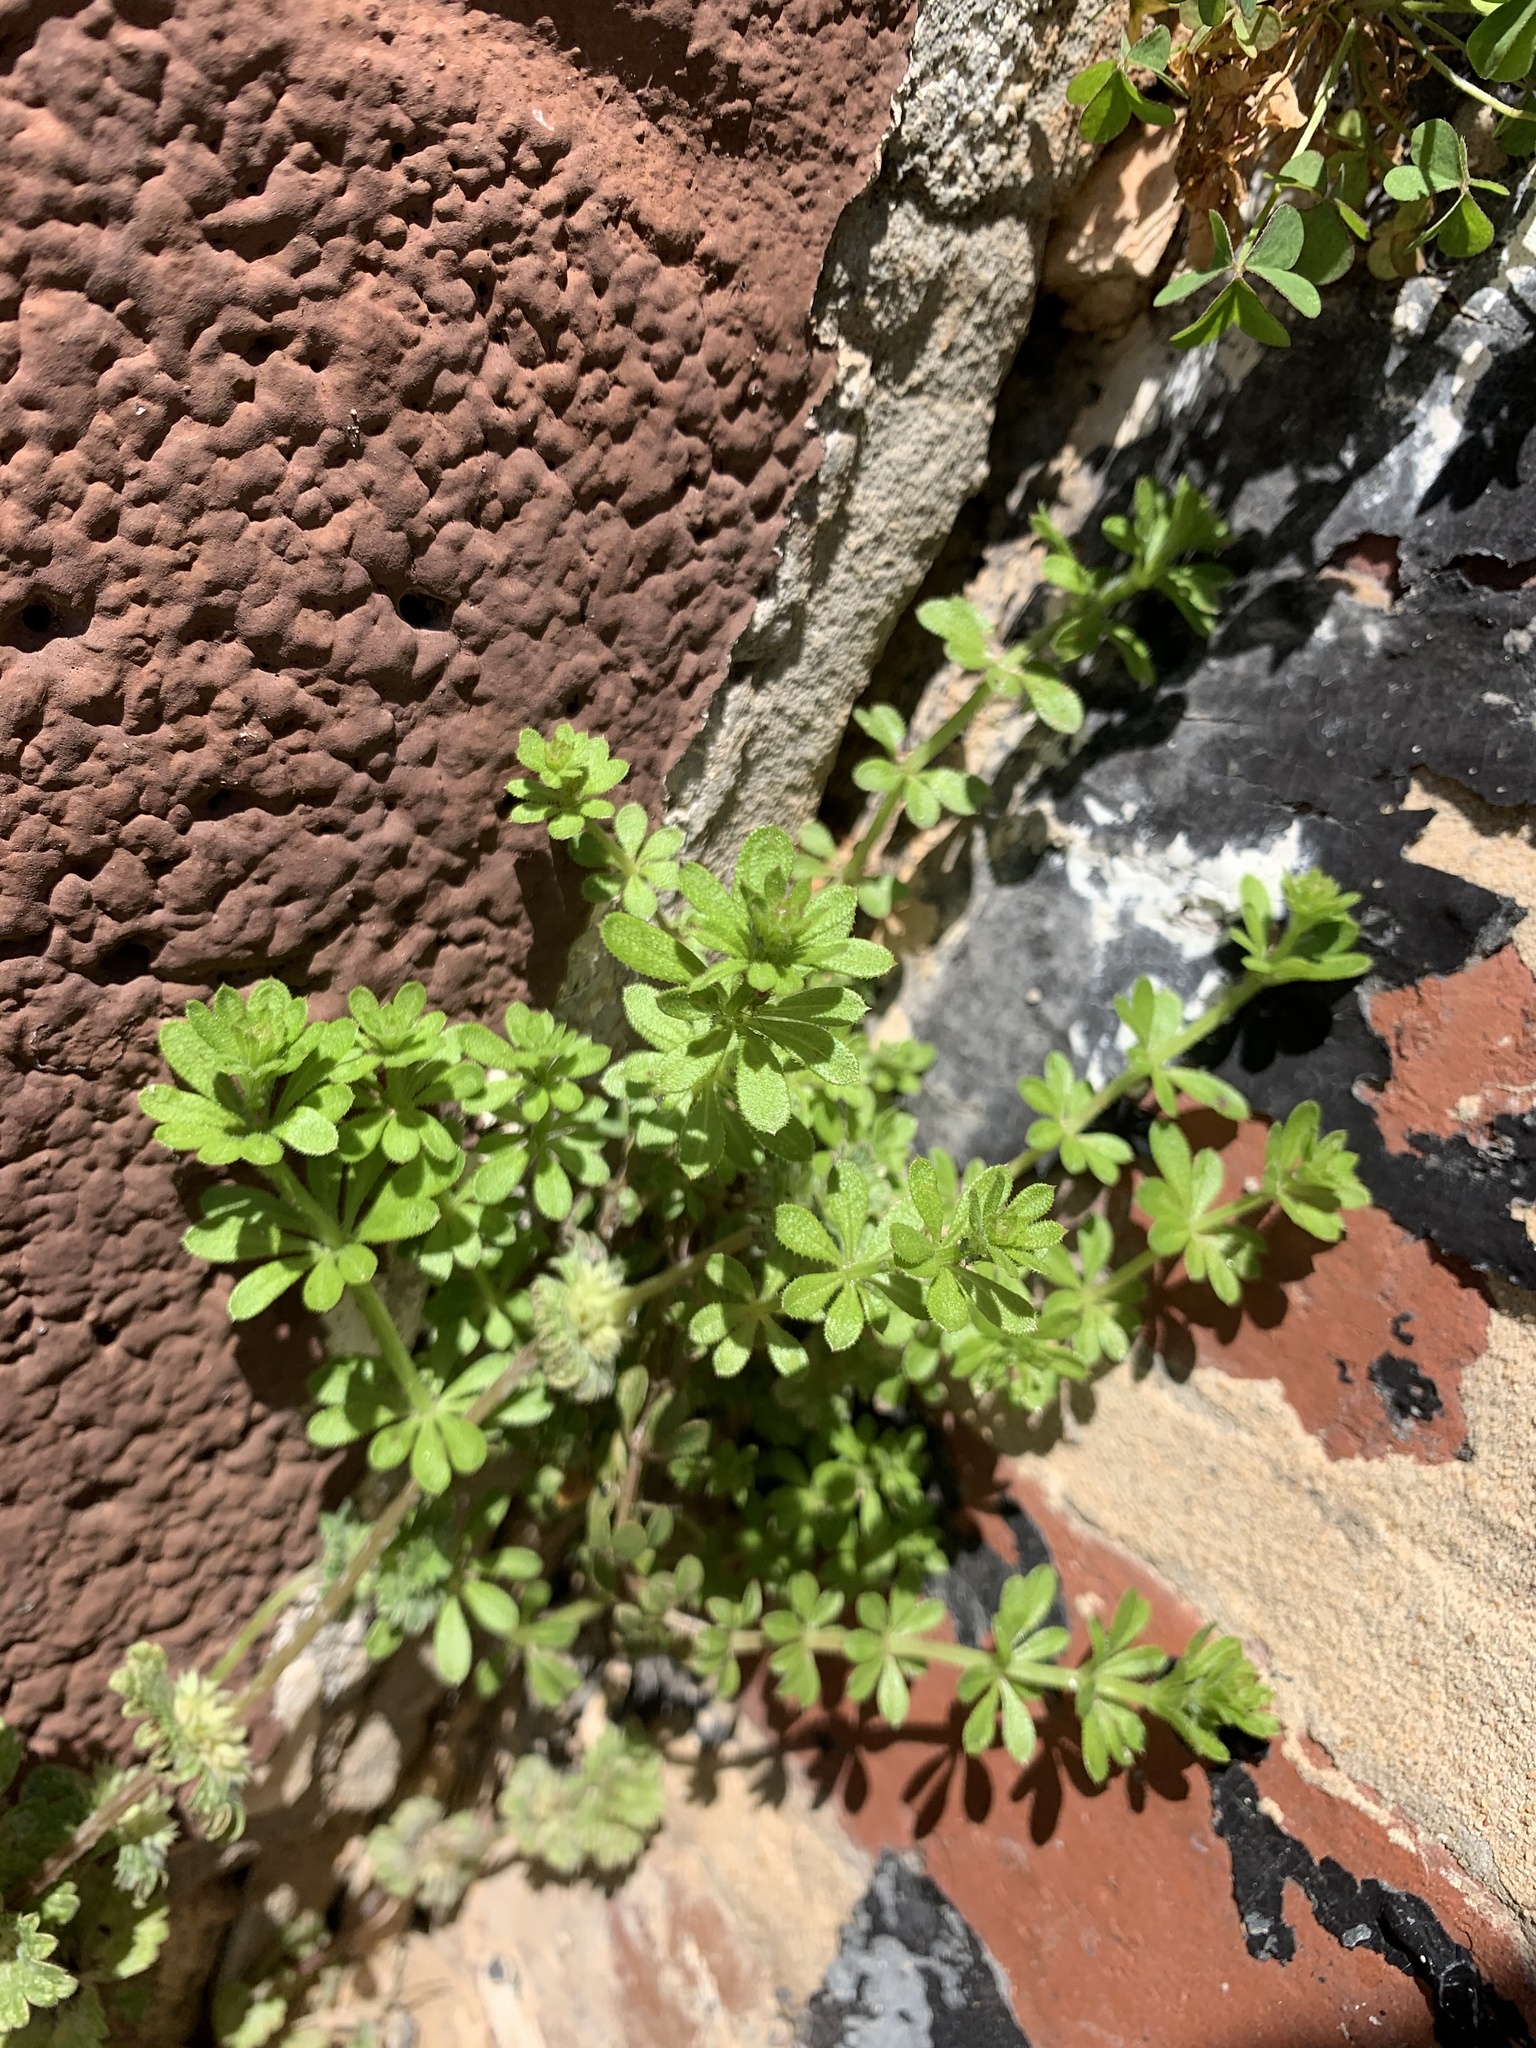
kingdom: Plantae
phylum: Tracheophyta
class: Magnoliopsida
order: Gentianales
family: Rubiaceae
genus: Galium
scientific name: Galium aparine
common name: Cleavers
